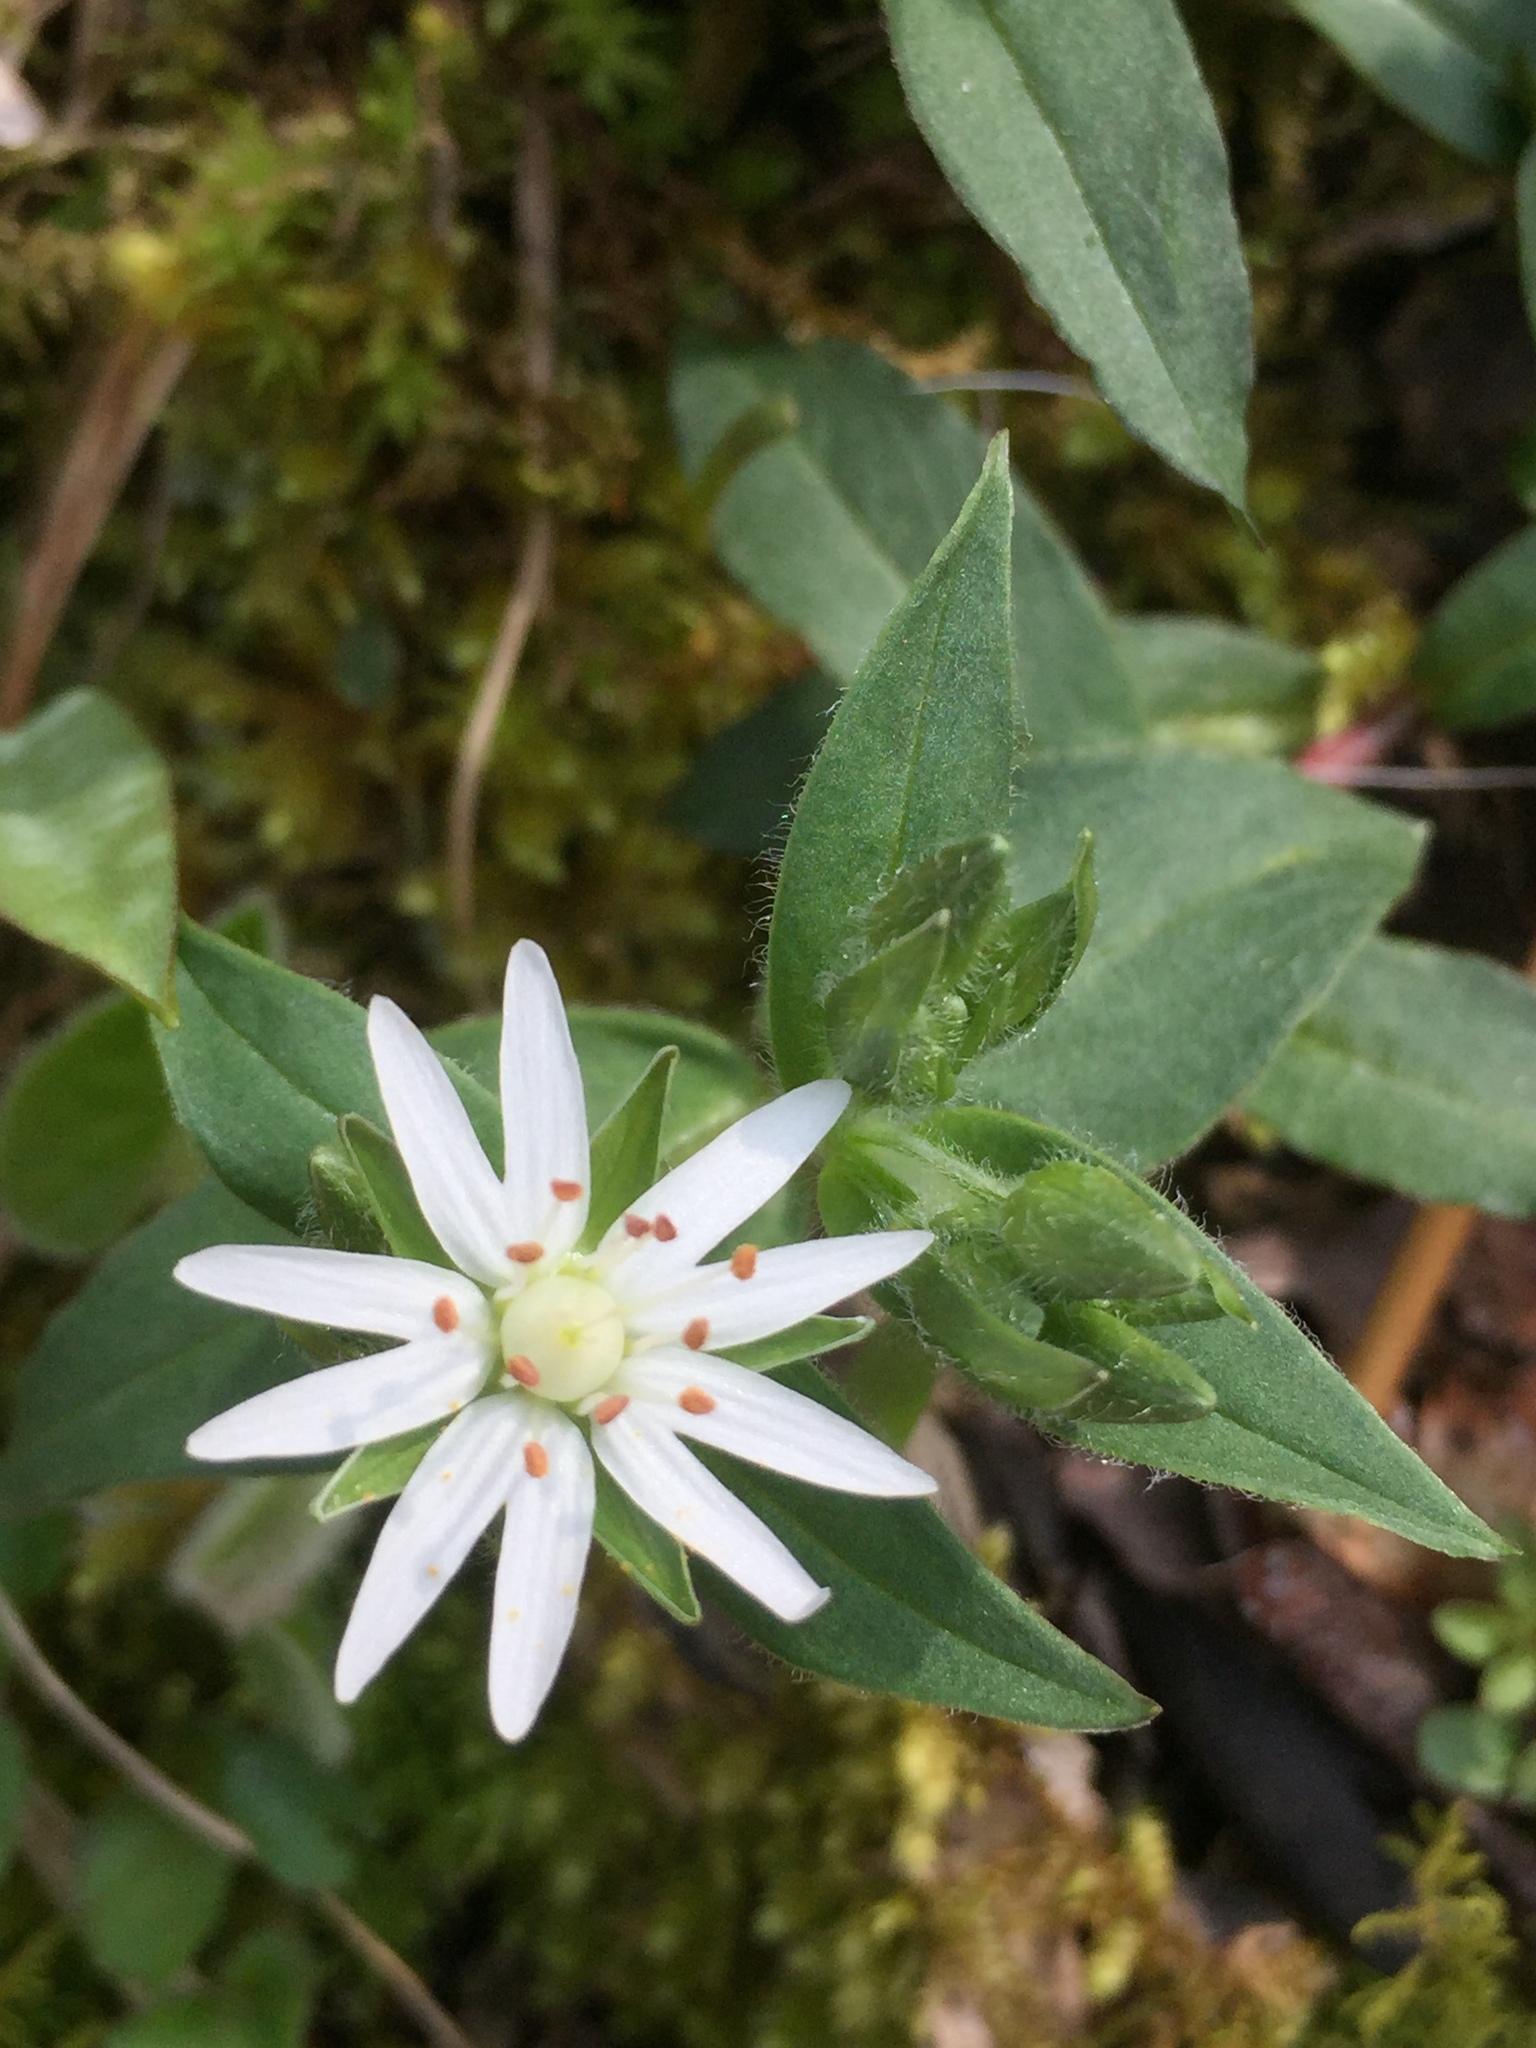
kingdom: Plantae
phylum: Tracheophyta
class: Magnoliopsida
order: Caryophyllales
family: Caryophyllaceae
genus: Stellaria
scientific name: Stellaria pubera
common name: Star chickweed
